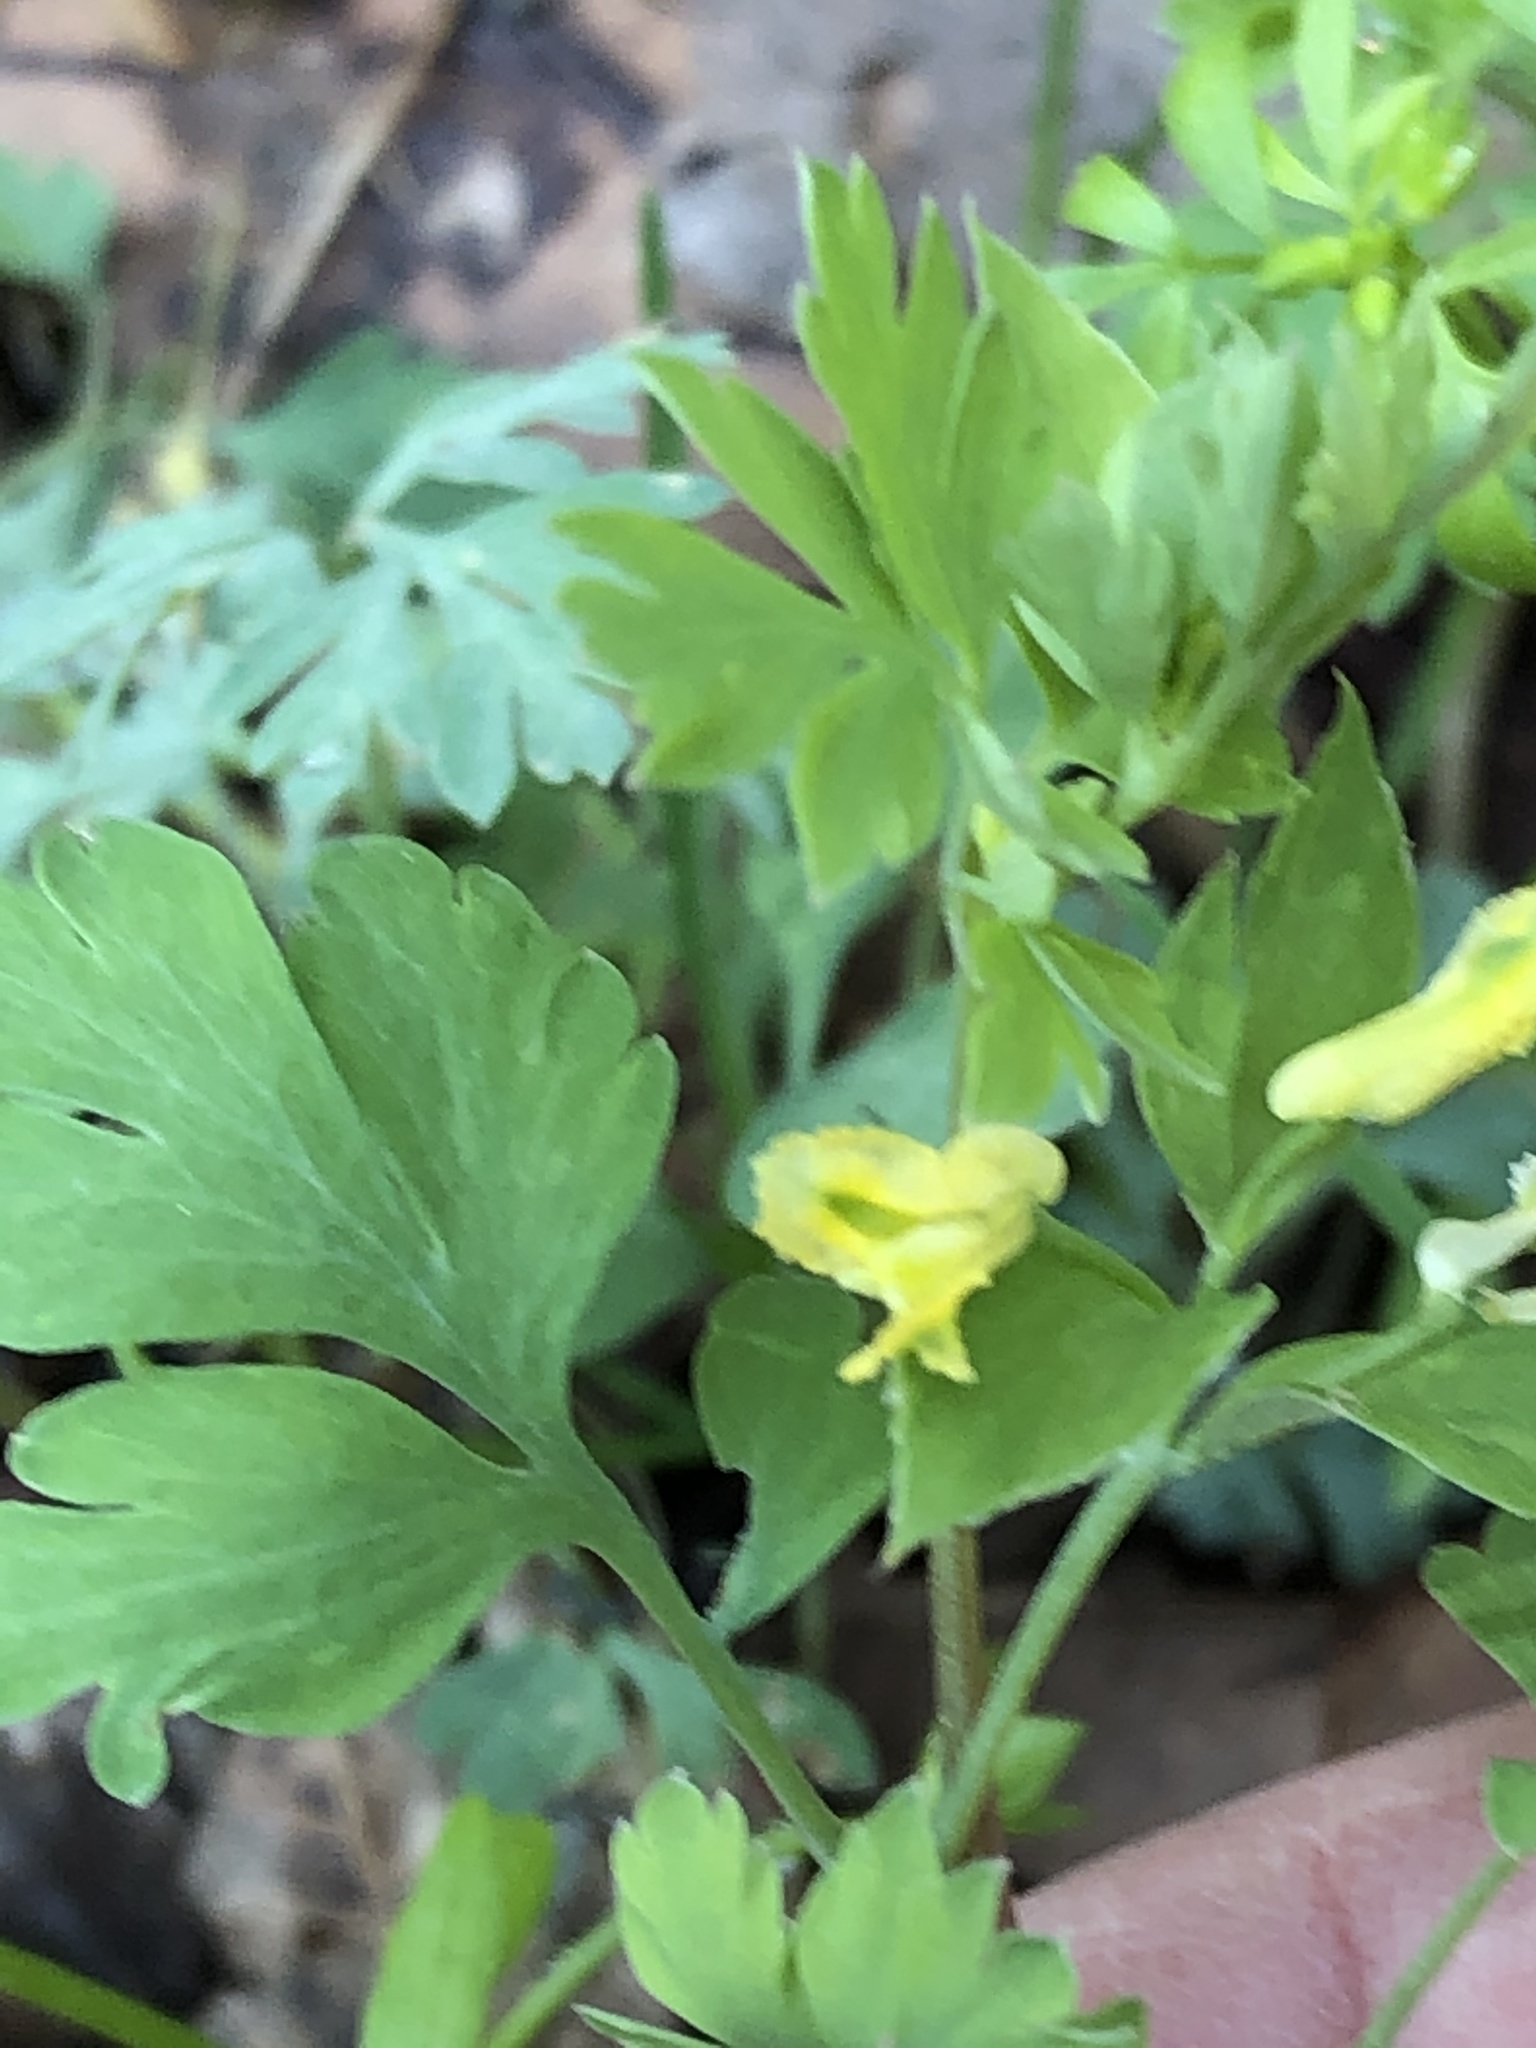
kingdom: Plantae
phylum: Tracheophyta
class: Magnoliopsida
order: Ranunculales
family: Papaveraceae
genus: Corydalis
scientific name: Corydalis flavula
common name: Yellow corydalis
